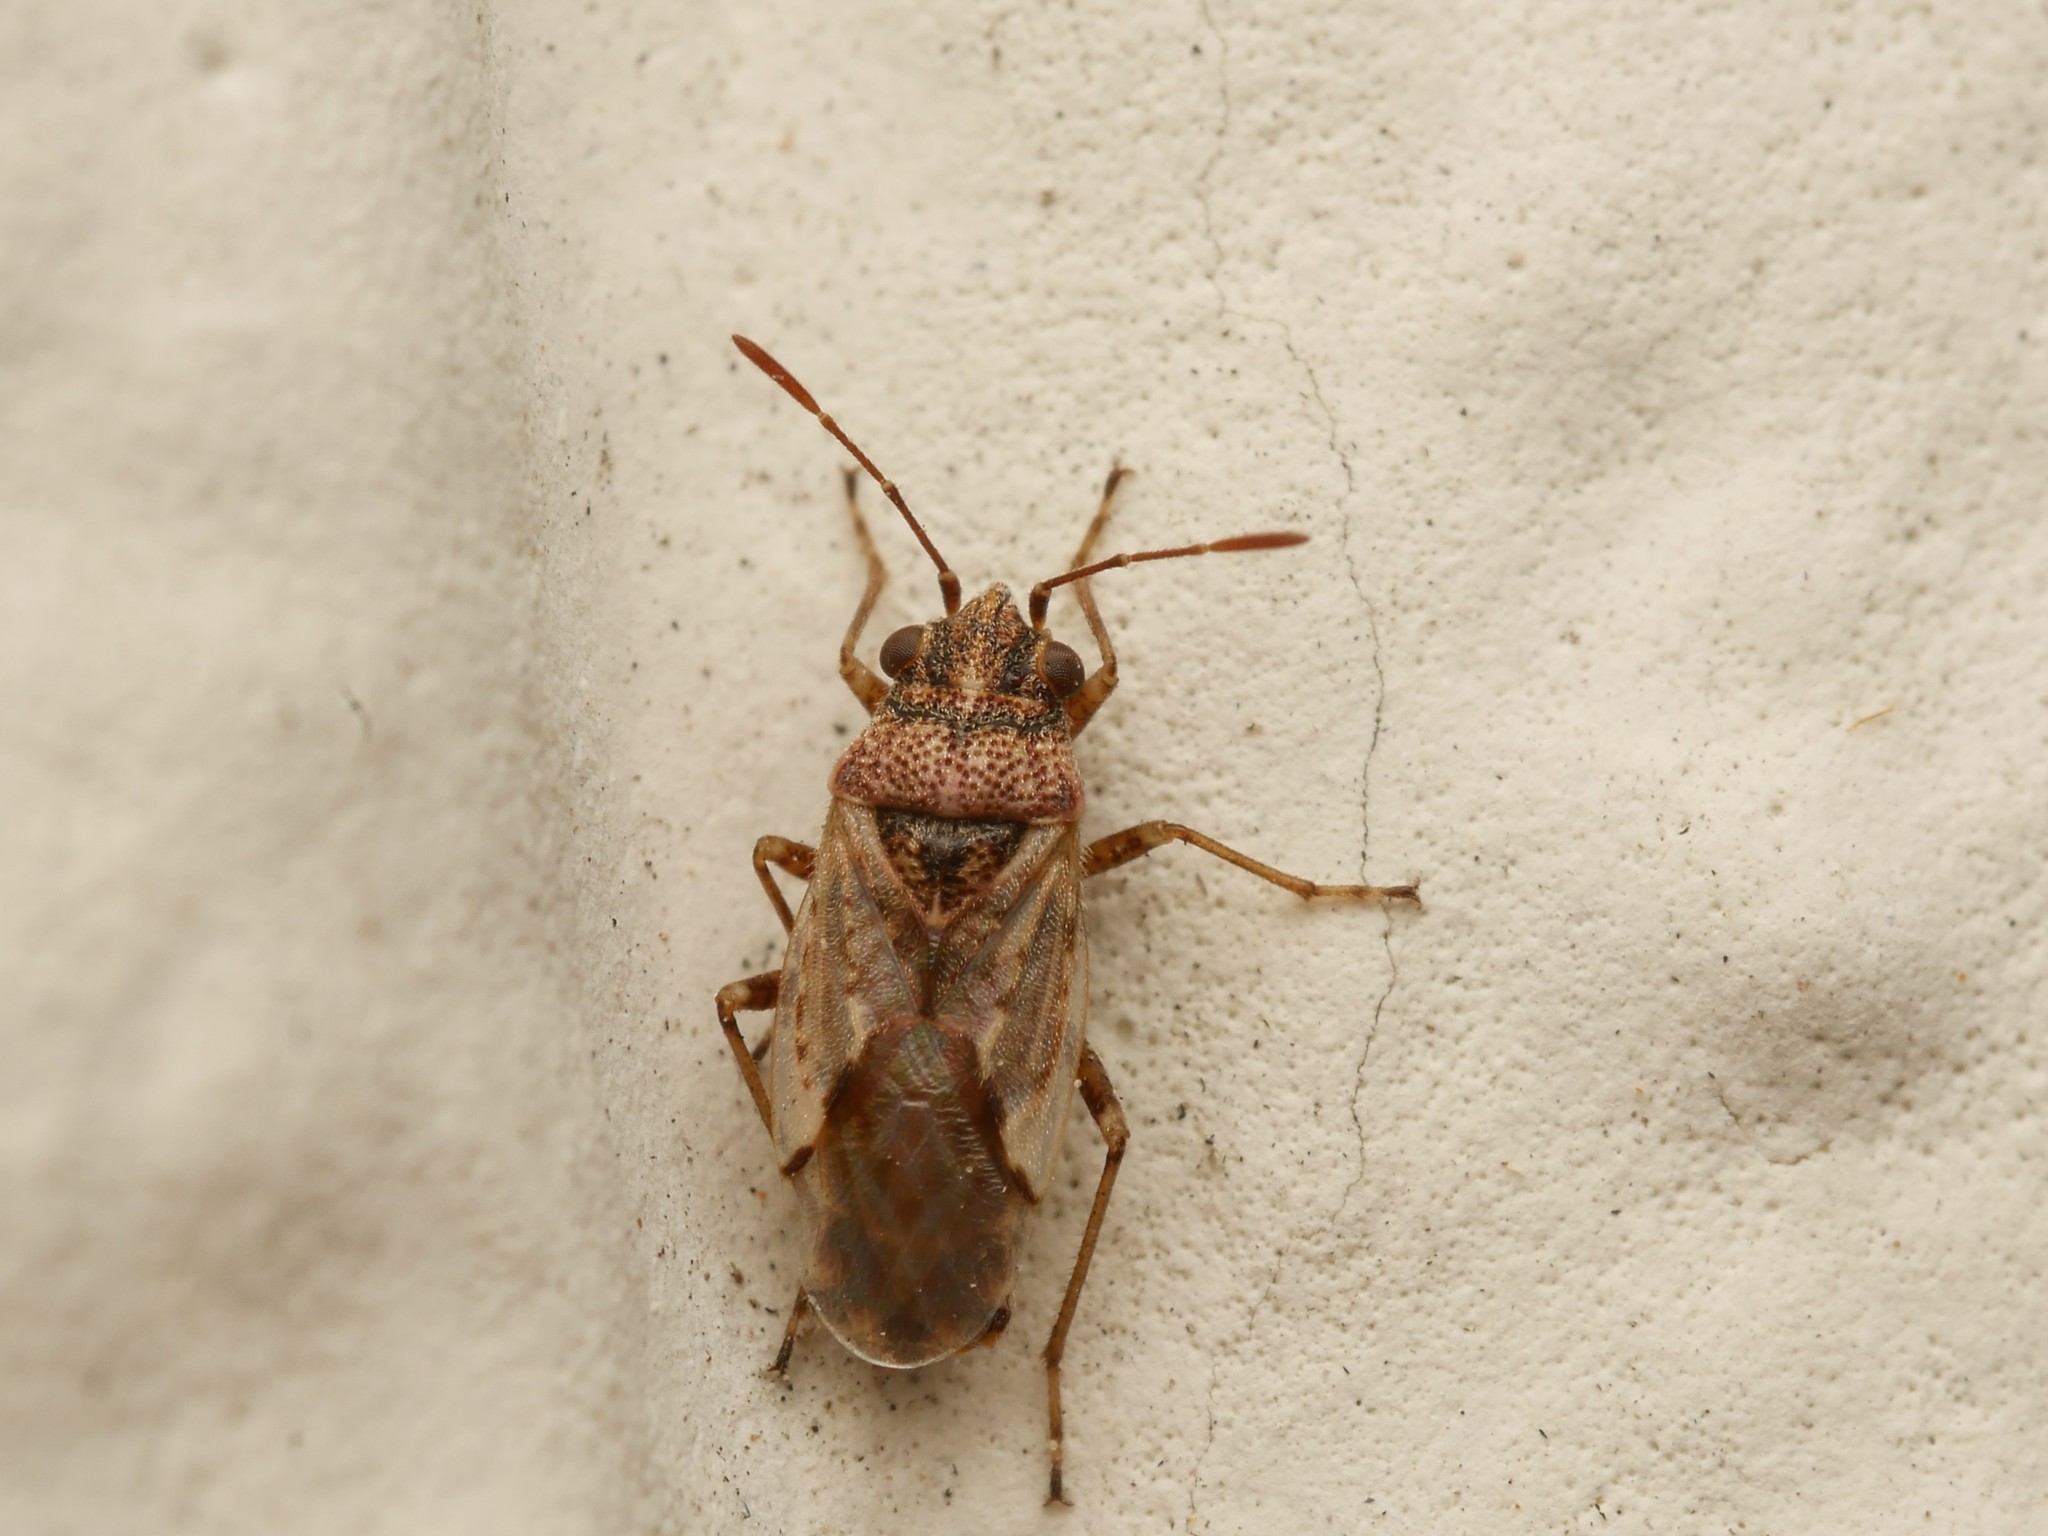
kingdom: Animalia
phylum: Arthropoda
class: Insecta
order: Hemiptera
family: Lygaeidae
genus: Nysius
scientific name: Nysius ericae
